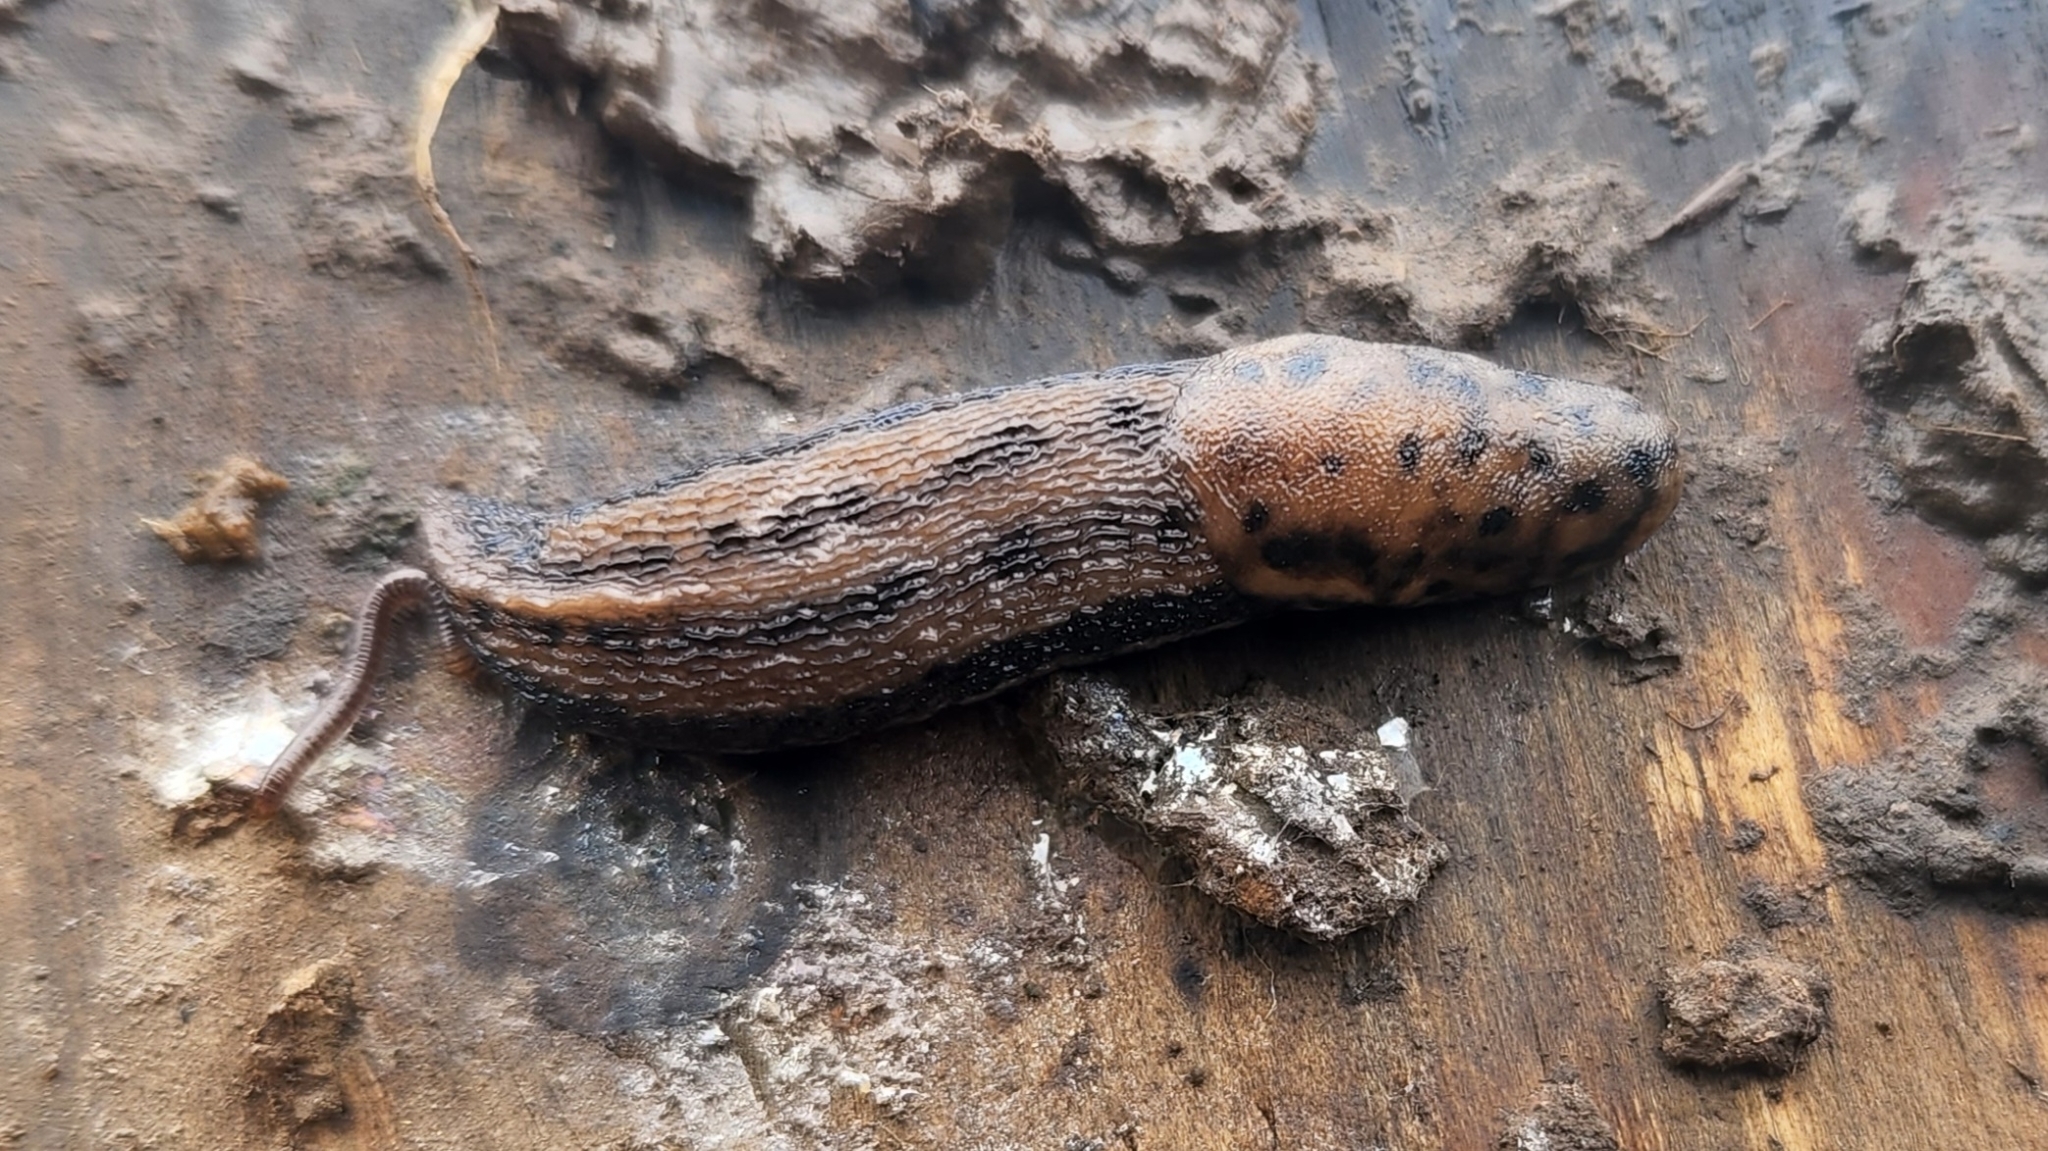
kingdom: Animalia
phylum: Mollusca
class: Gastropoda
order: Stylommatophora
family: Limacidae
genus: Limax
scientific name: Limax maximus
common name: Great grey slug
